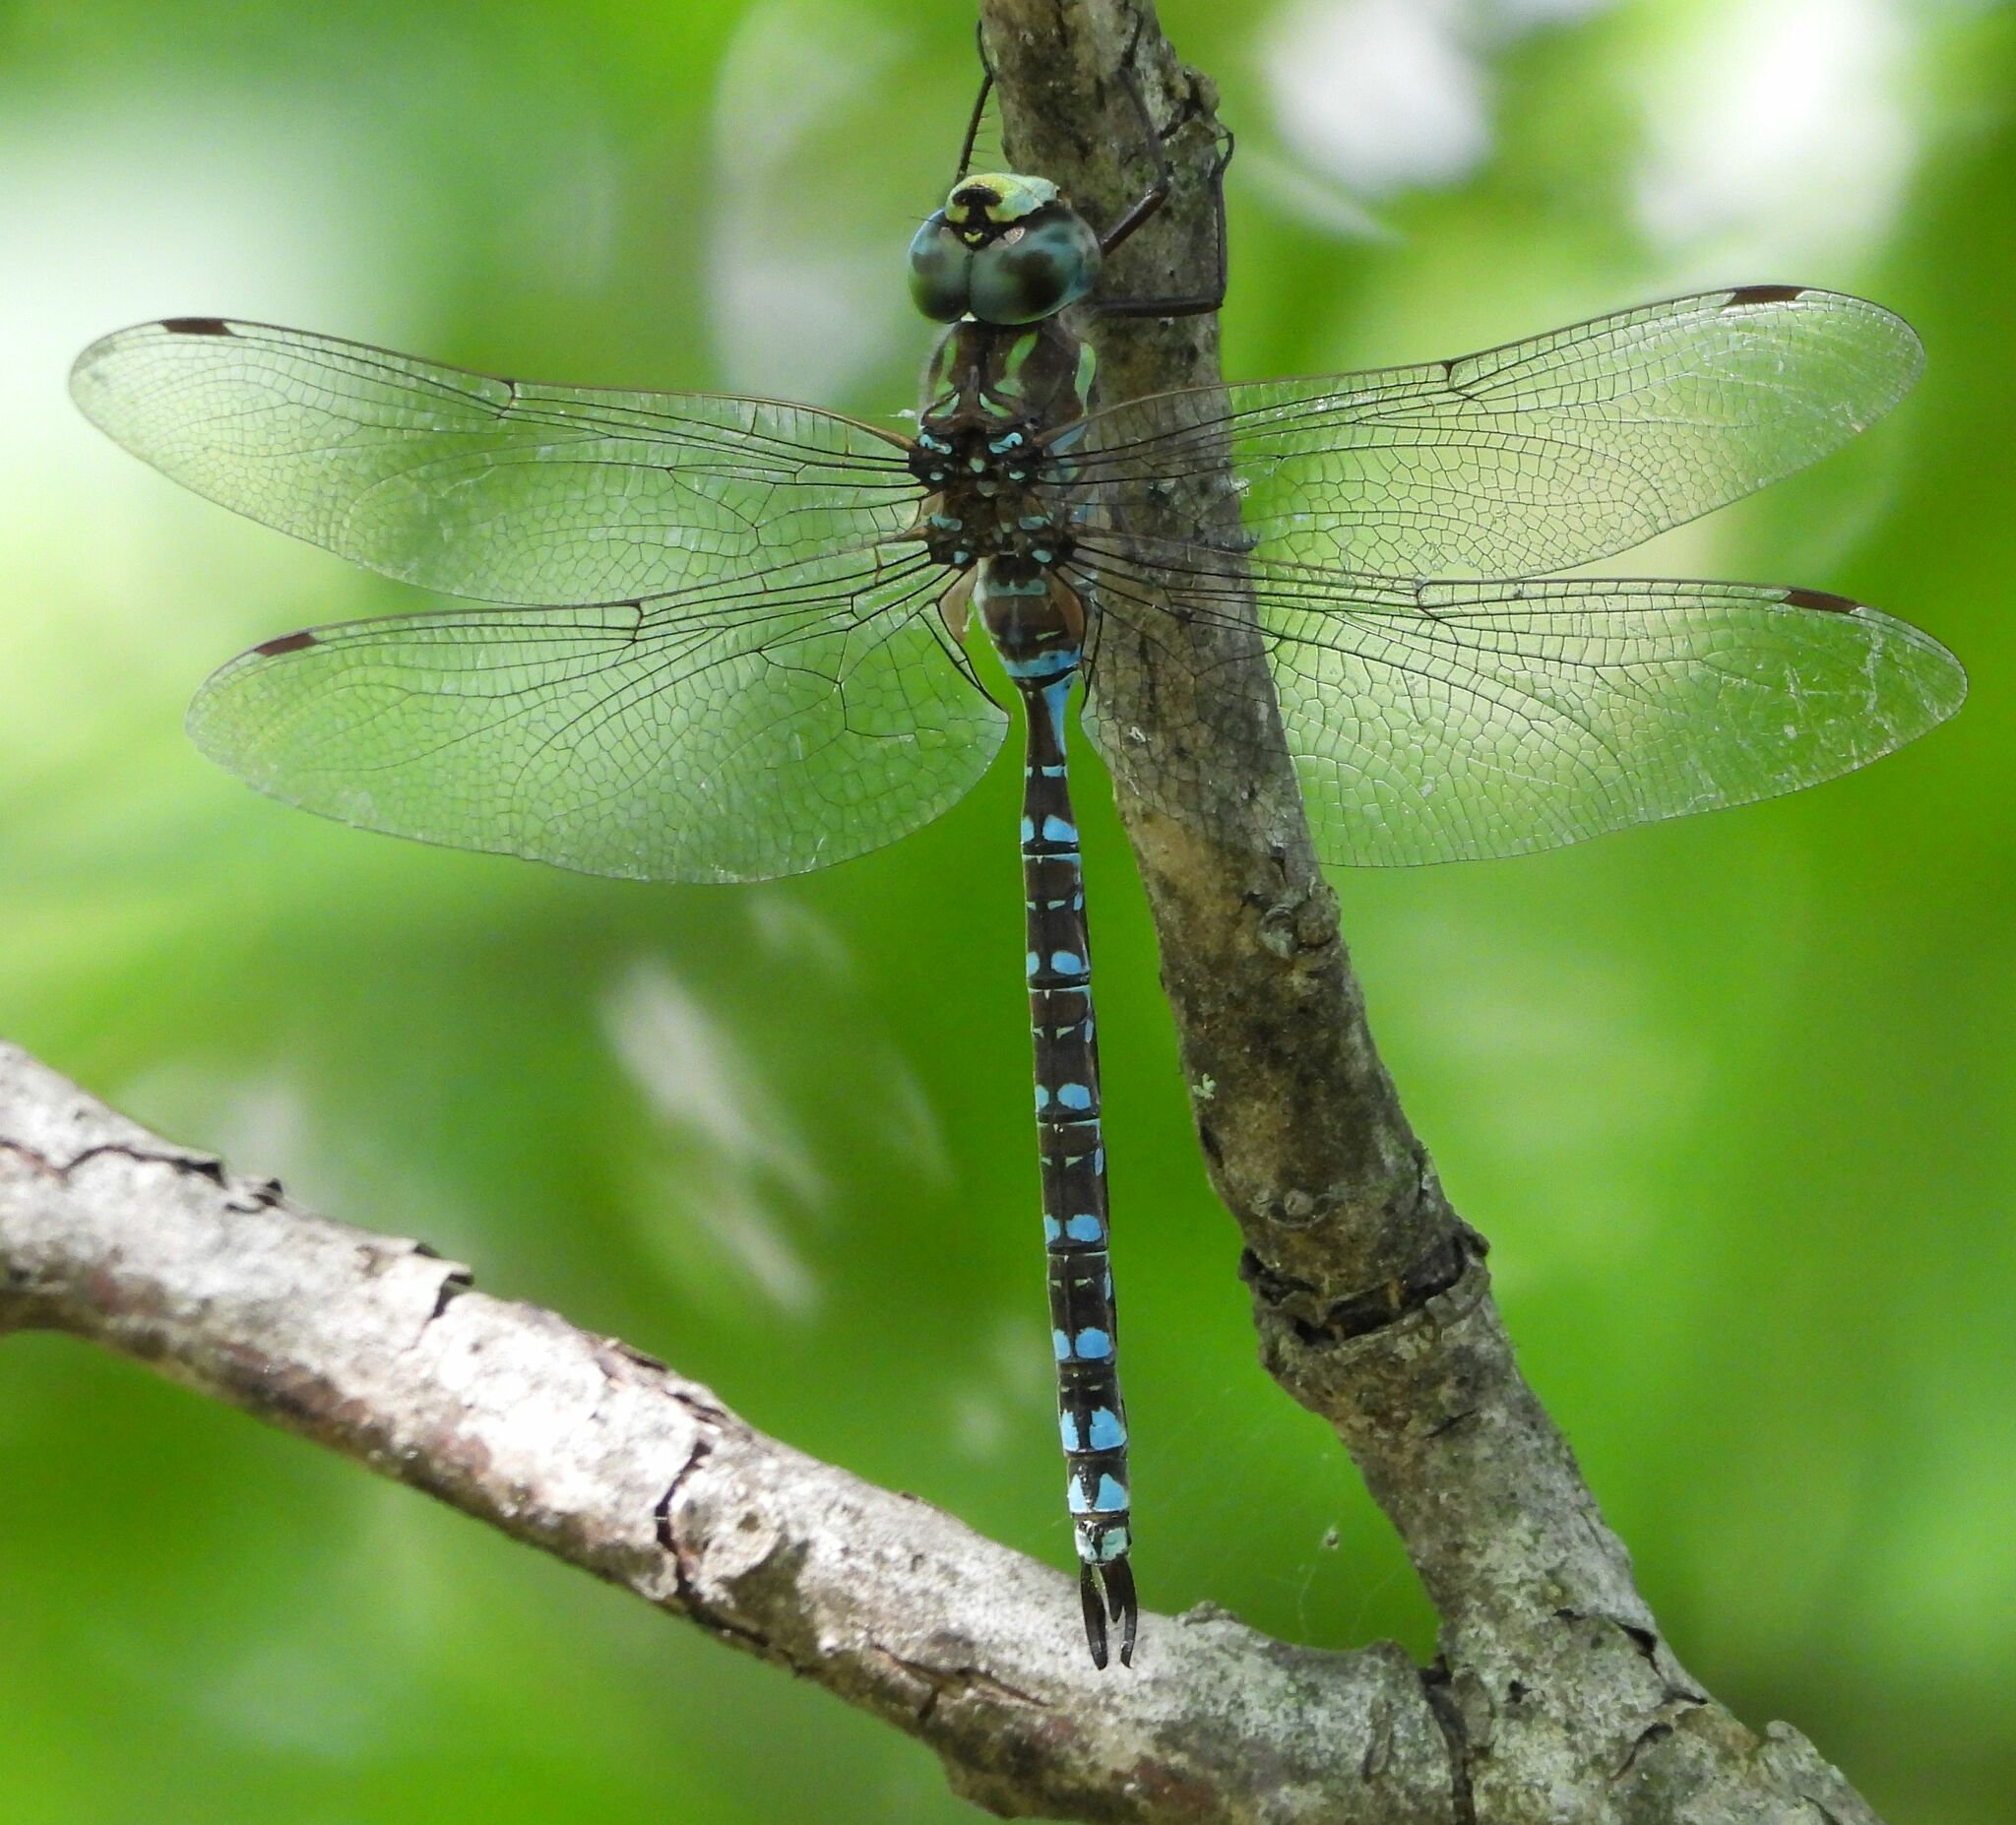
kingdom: Animalia
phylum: Arthropoda
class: Insecta
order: Odonata
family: Aeshnidae
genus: Aeshna
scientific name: Aeshna canadensis
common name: Canada darner
